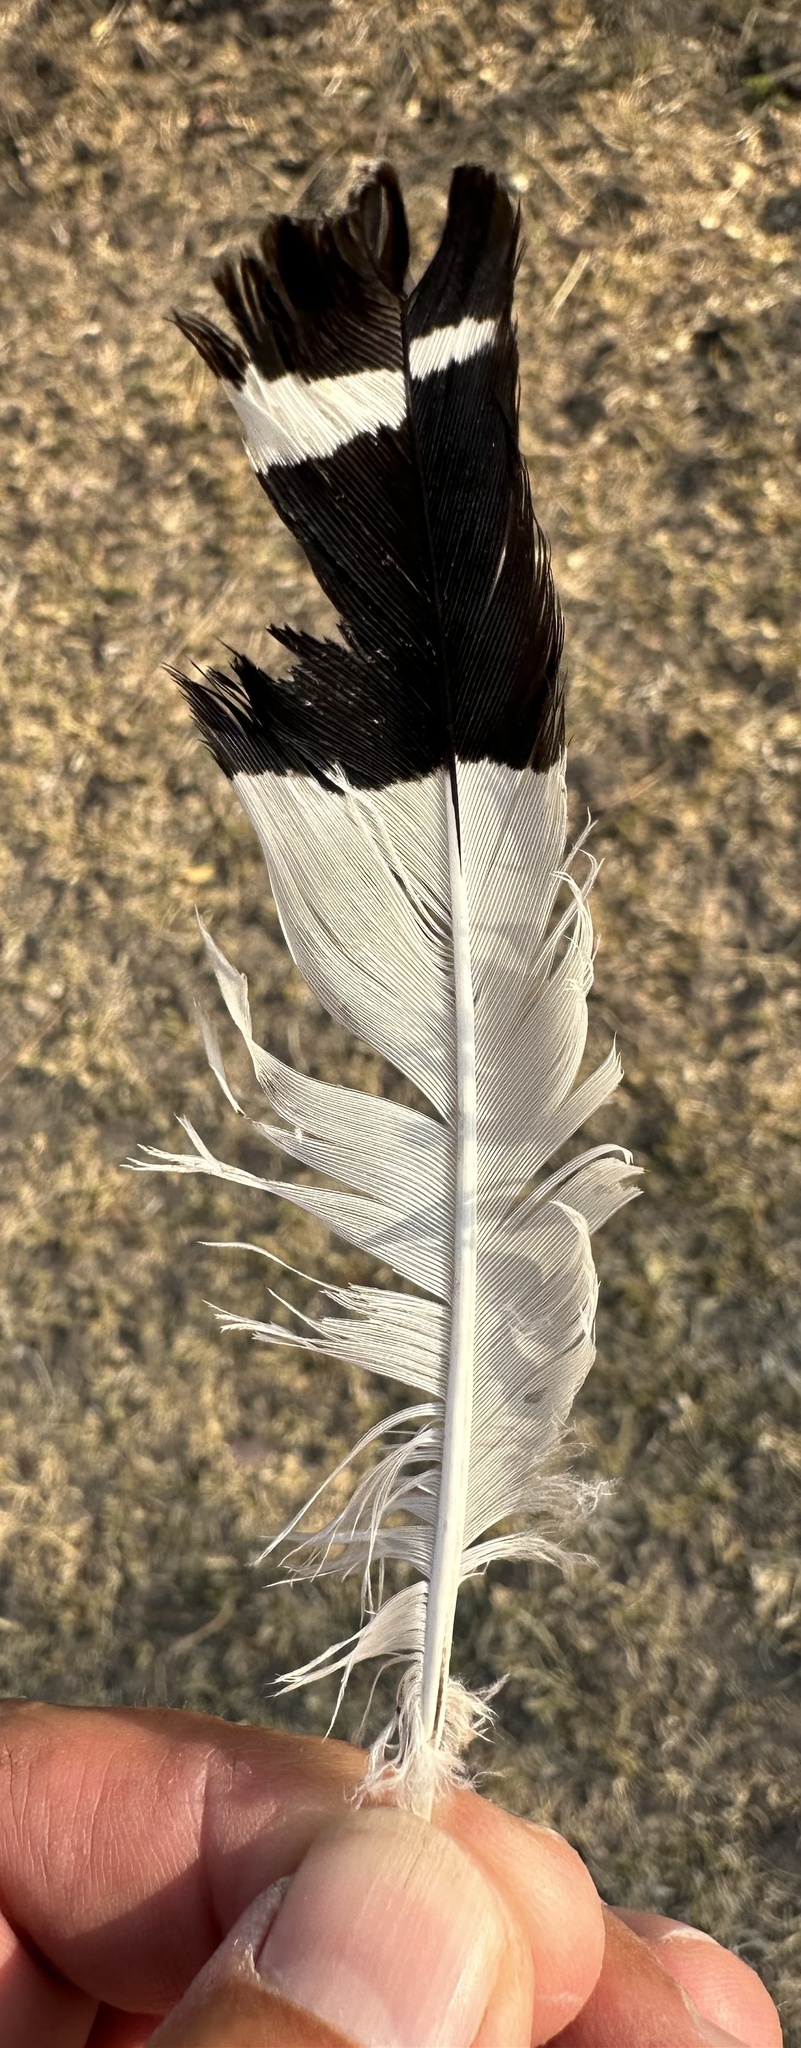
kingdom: Animalia
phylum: Chordata
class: Aves
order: Bucerotiformes
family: Upupidae
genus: Upupa
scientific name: Upupa africana
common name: African hoopoe
